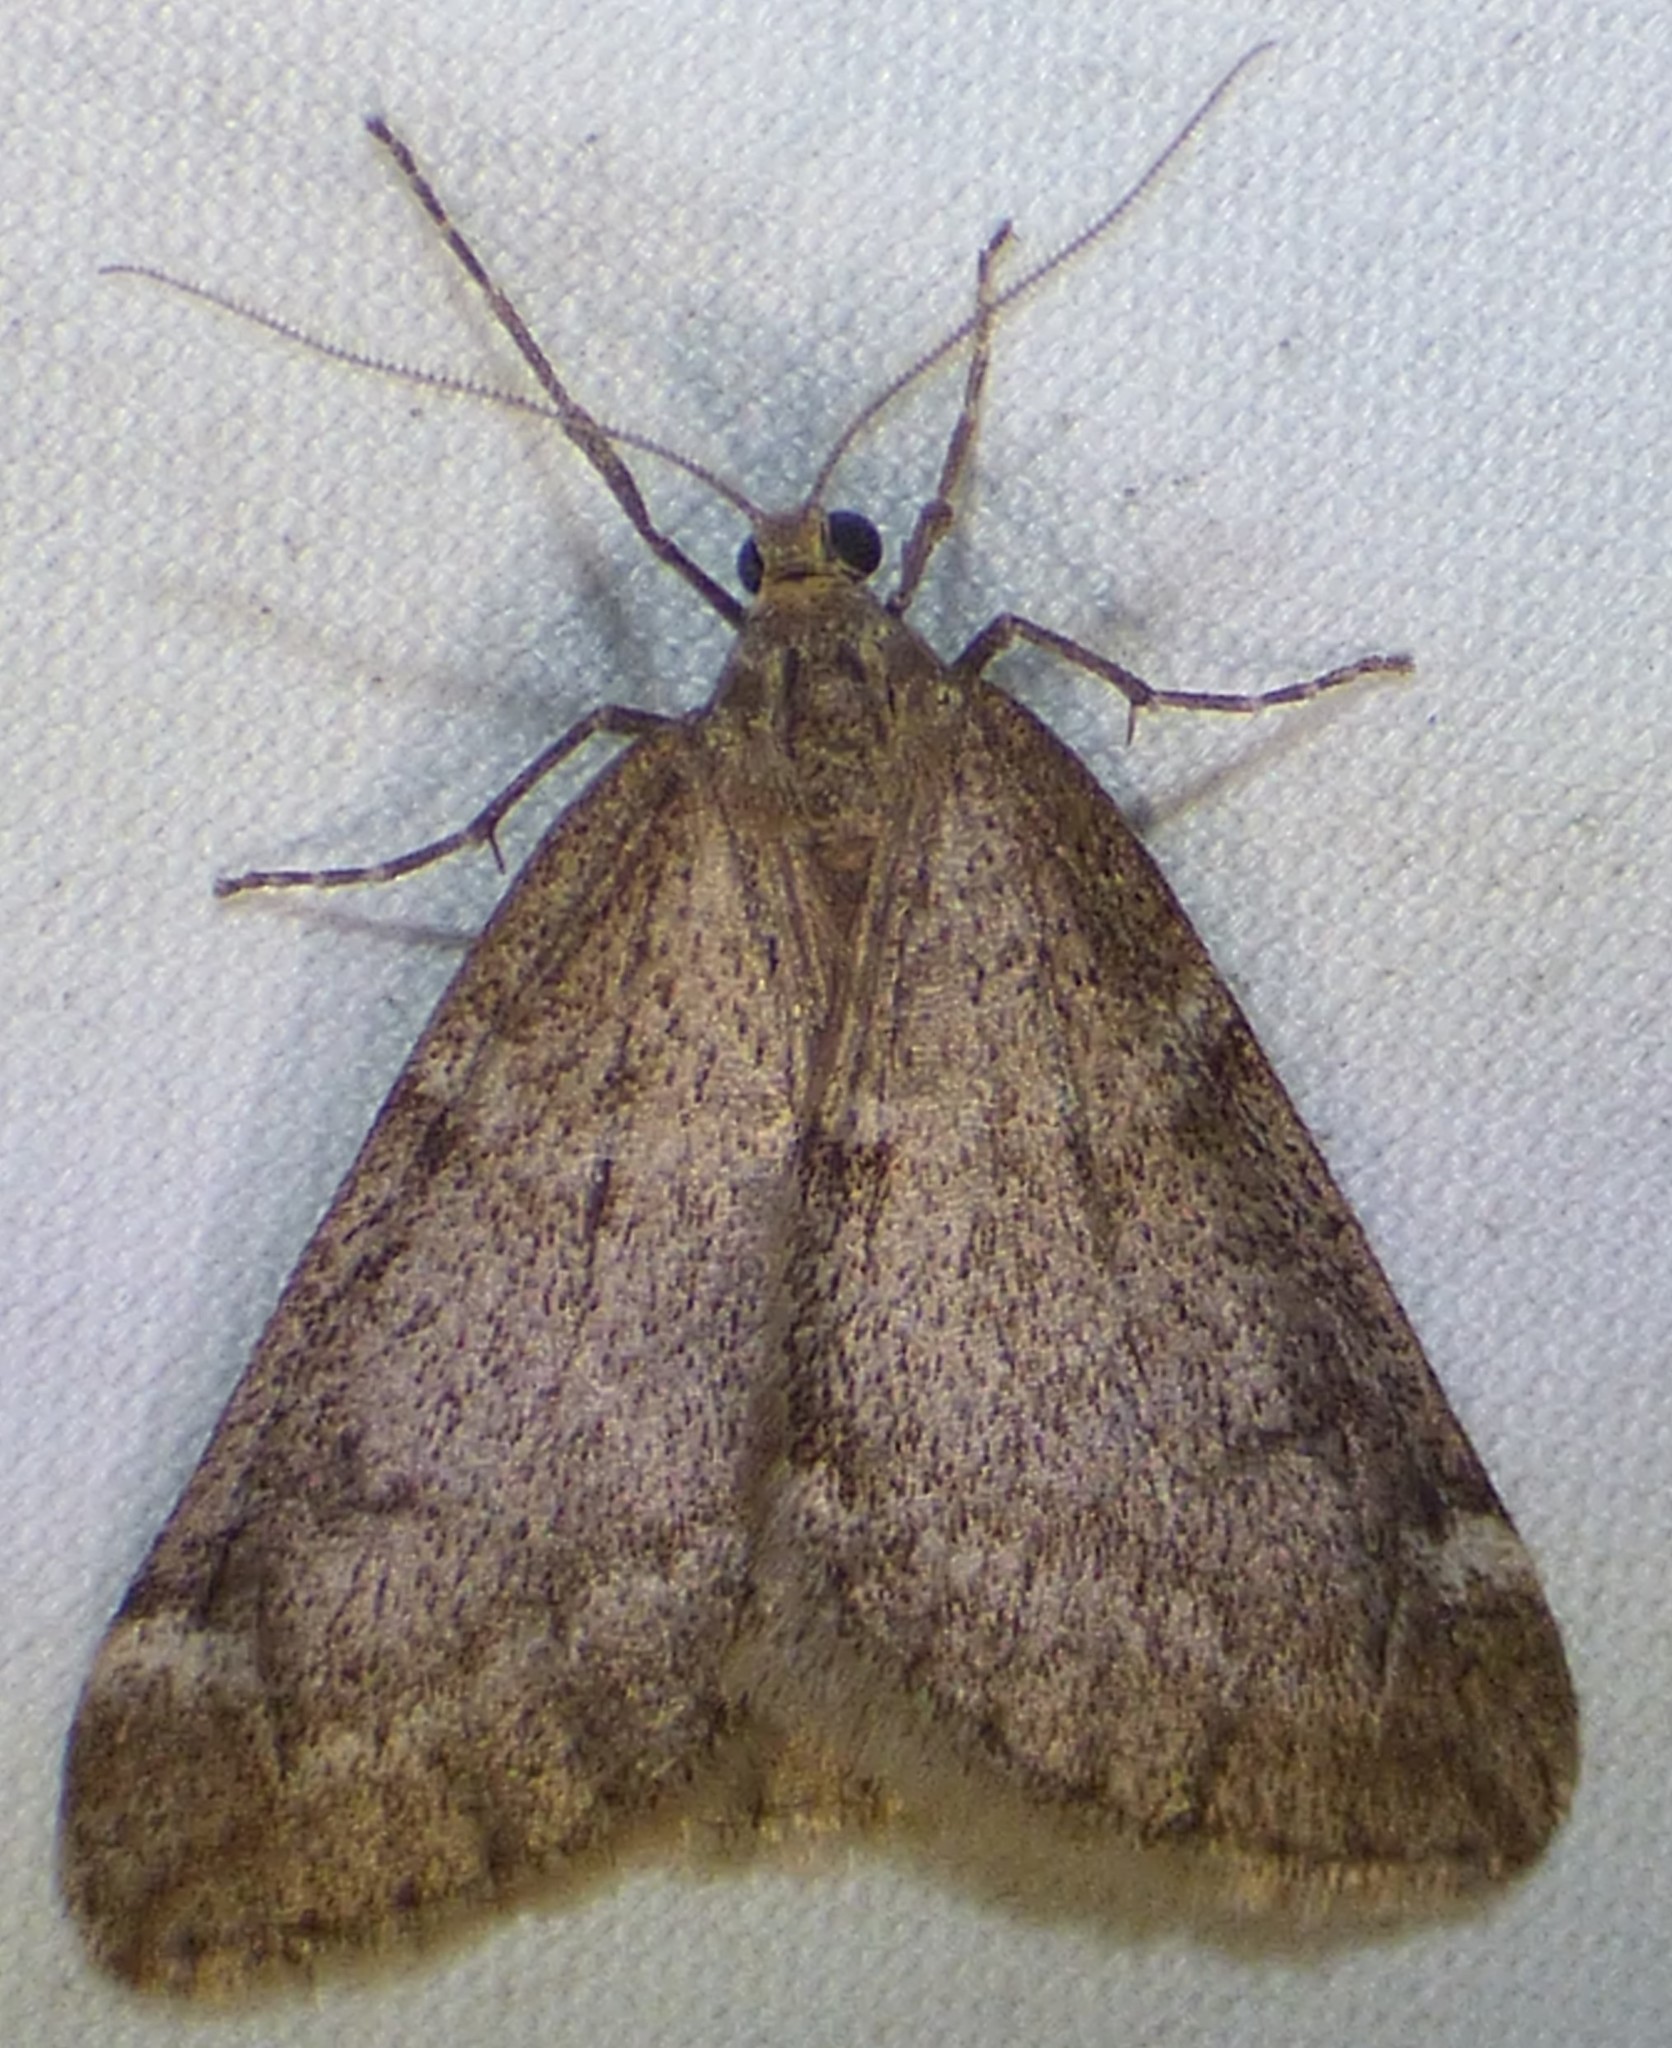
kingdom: Animalia
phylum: Arthropoda
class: Insecta
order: Lepidoptera
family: Geometridae
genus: Alsophila
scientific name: Alsophila pometaria
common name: Fall cankerworm
